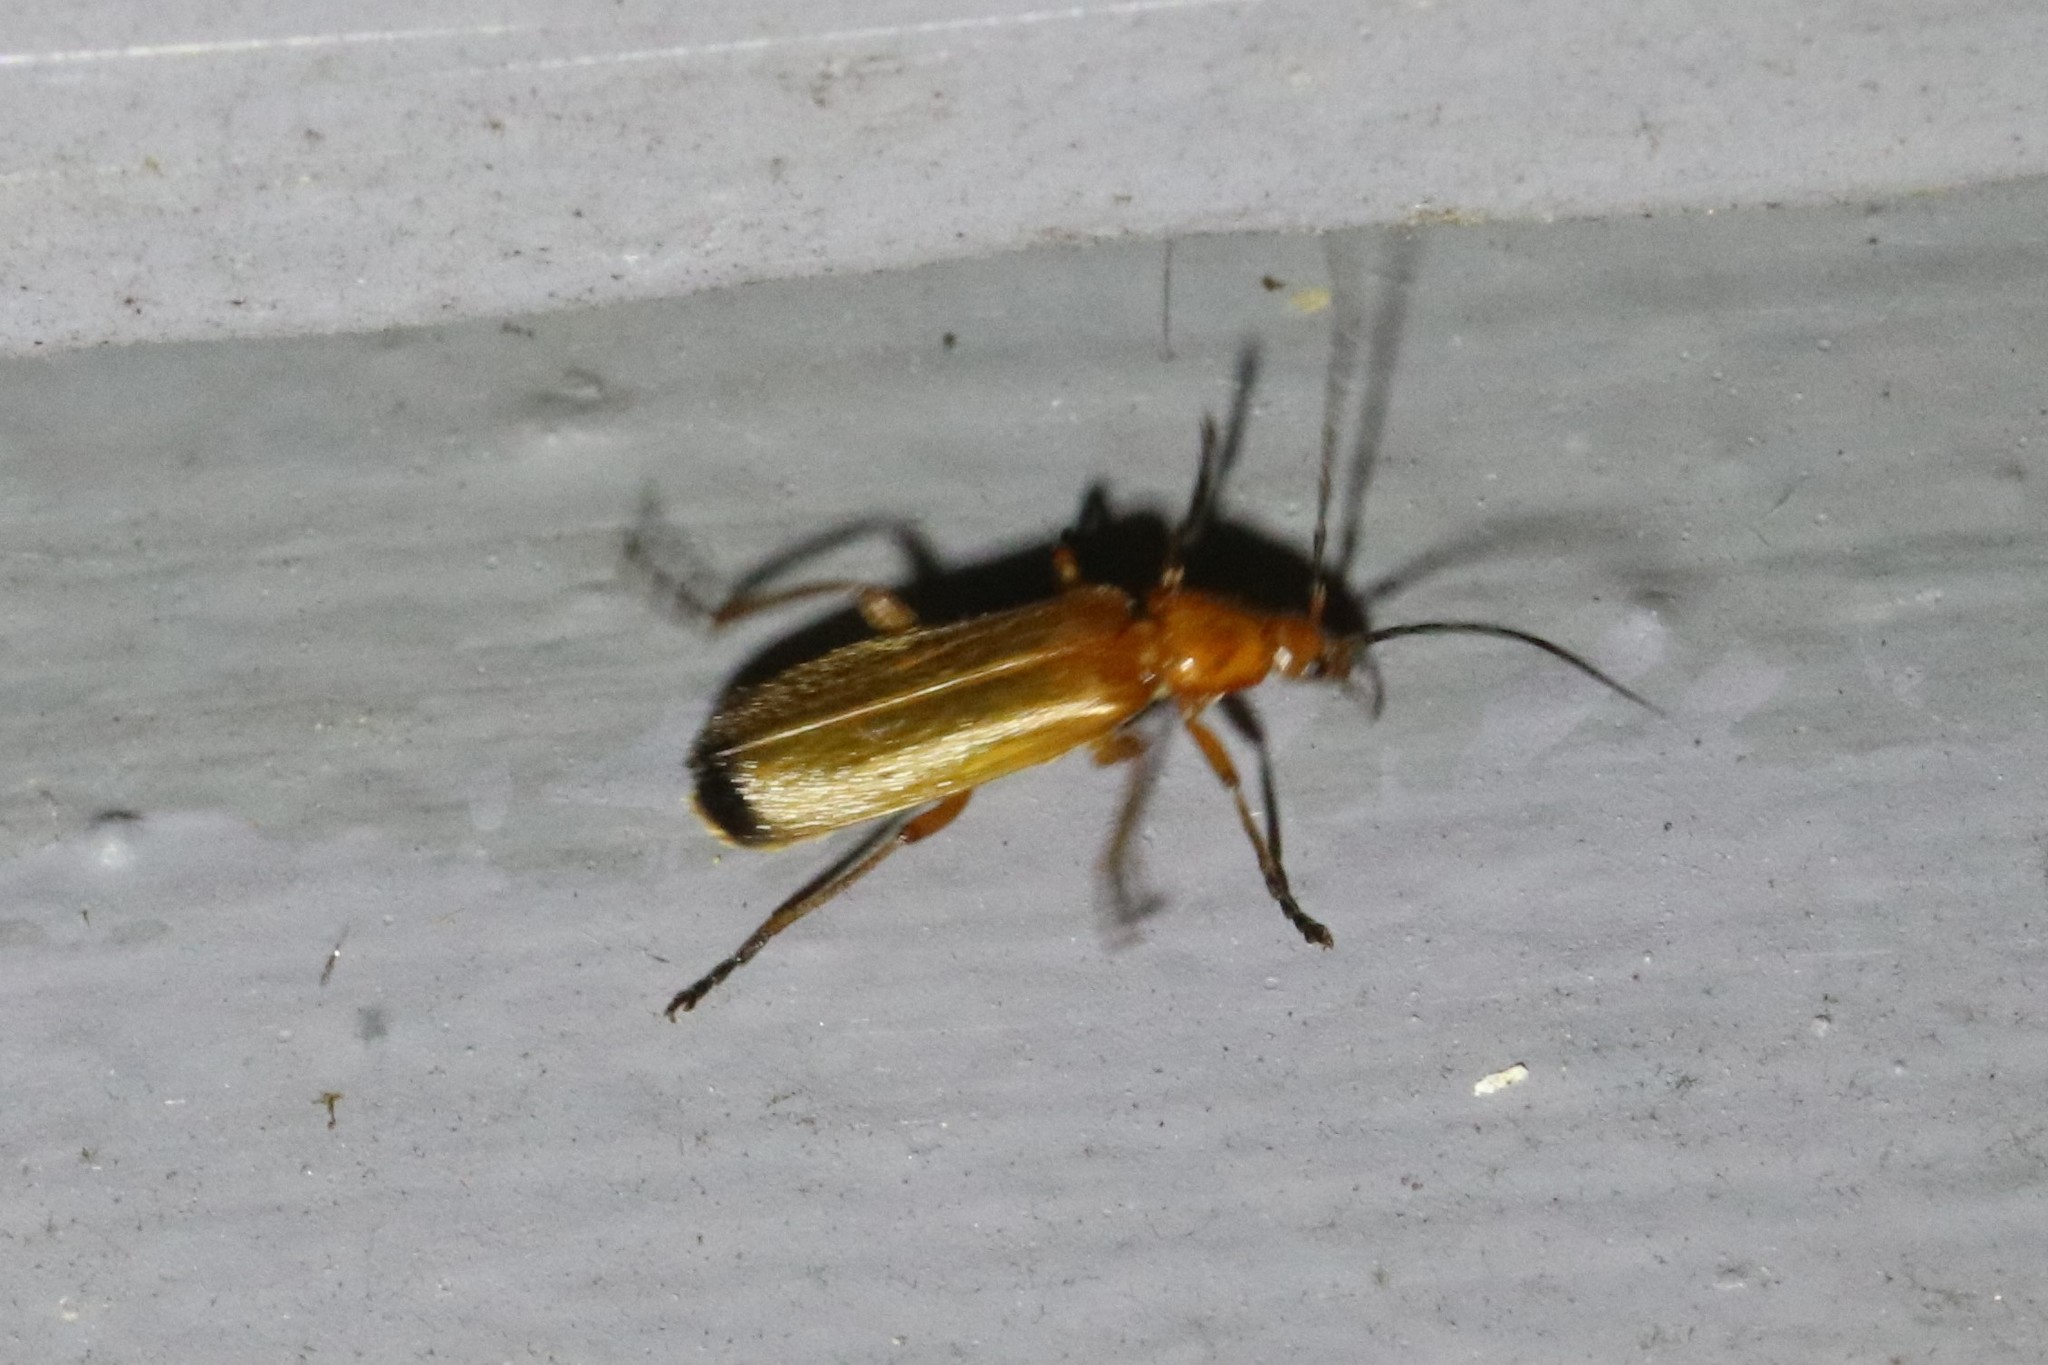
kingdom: Animalia
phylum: Arthropoda
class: Insecta
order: Coleoptera
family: Cantharidae
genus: Rhagonycha
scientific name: Rhagonycha fulva
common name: Common red soldier beetle
